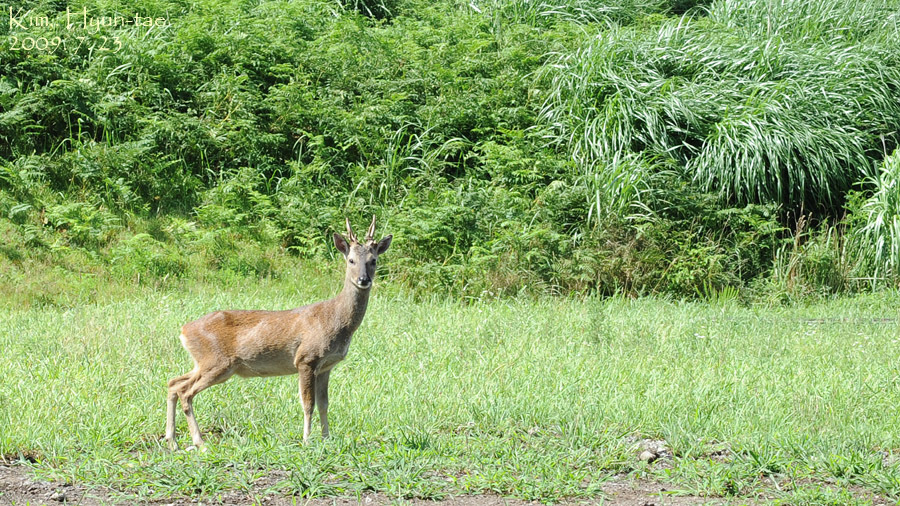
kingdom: Animalia
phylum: Chordata
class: Mammalia
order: Artiodactyla
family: Cervidae
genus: Capreolus
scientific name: Capreolus pygargus
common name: Siberian roe
